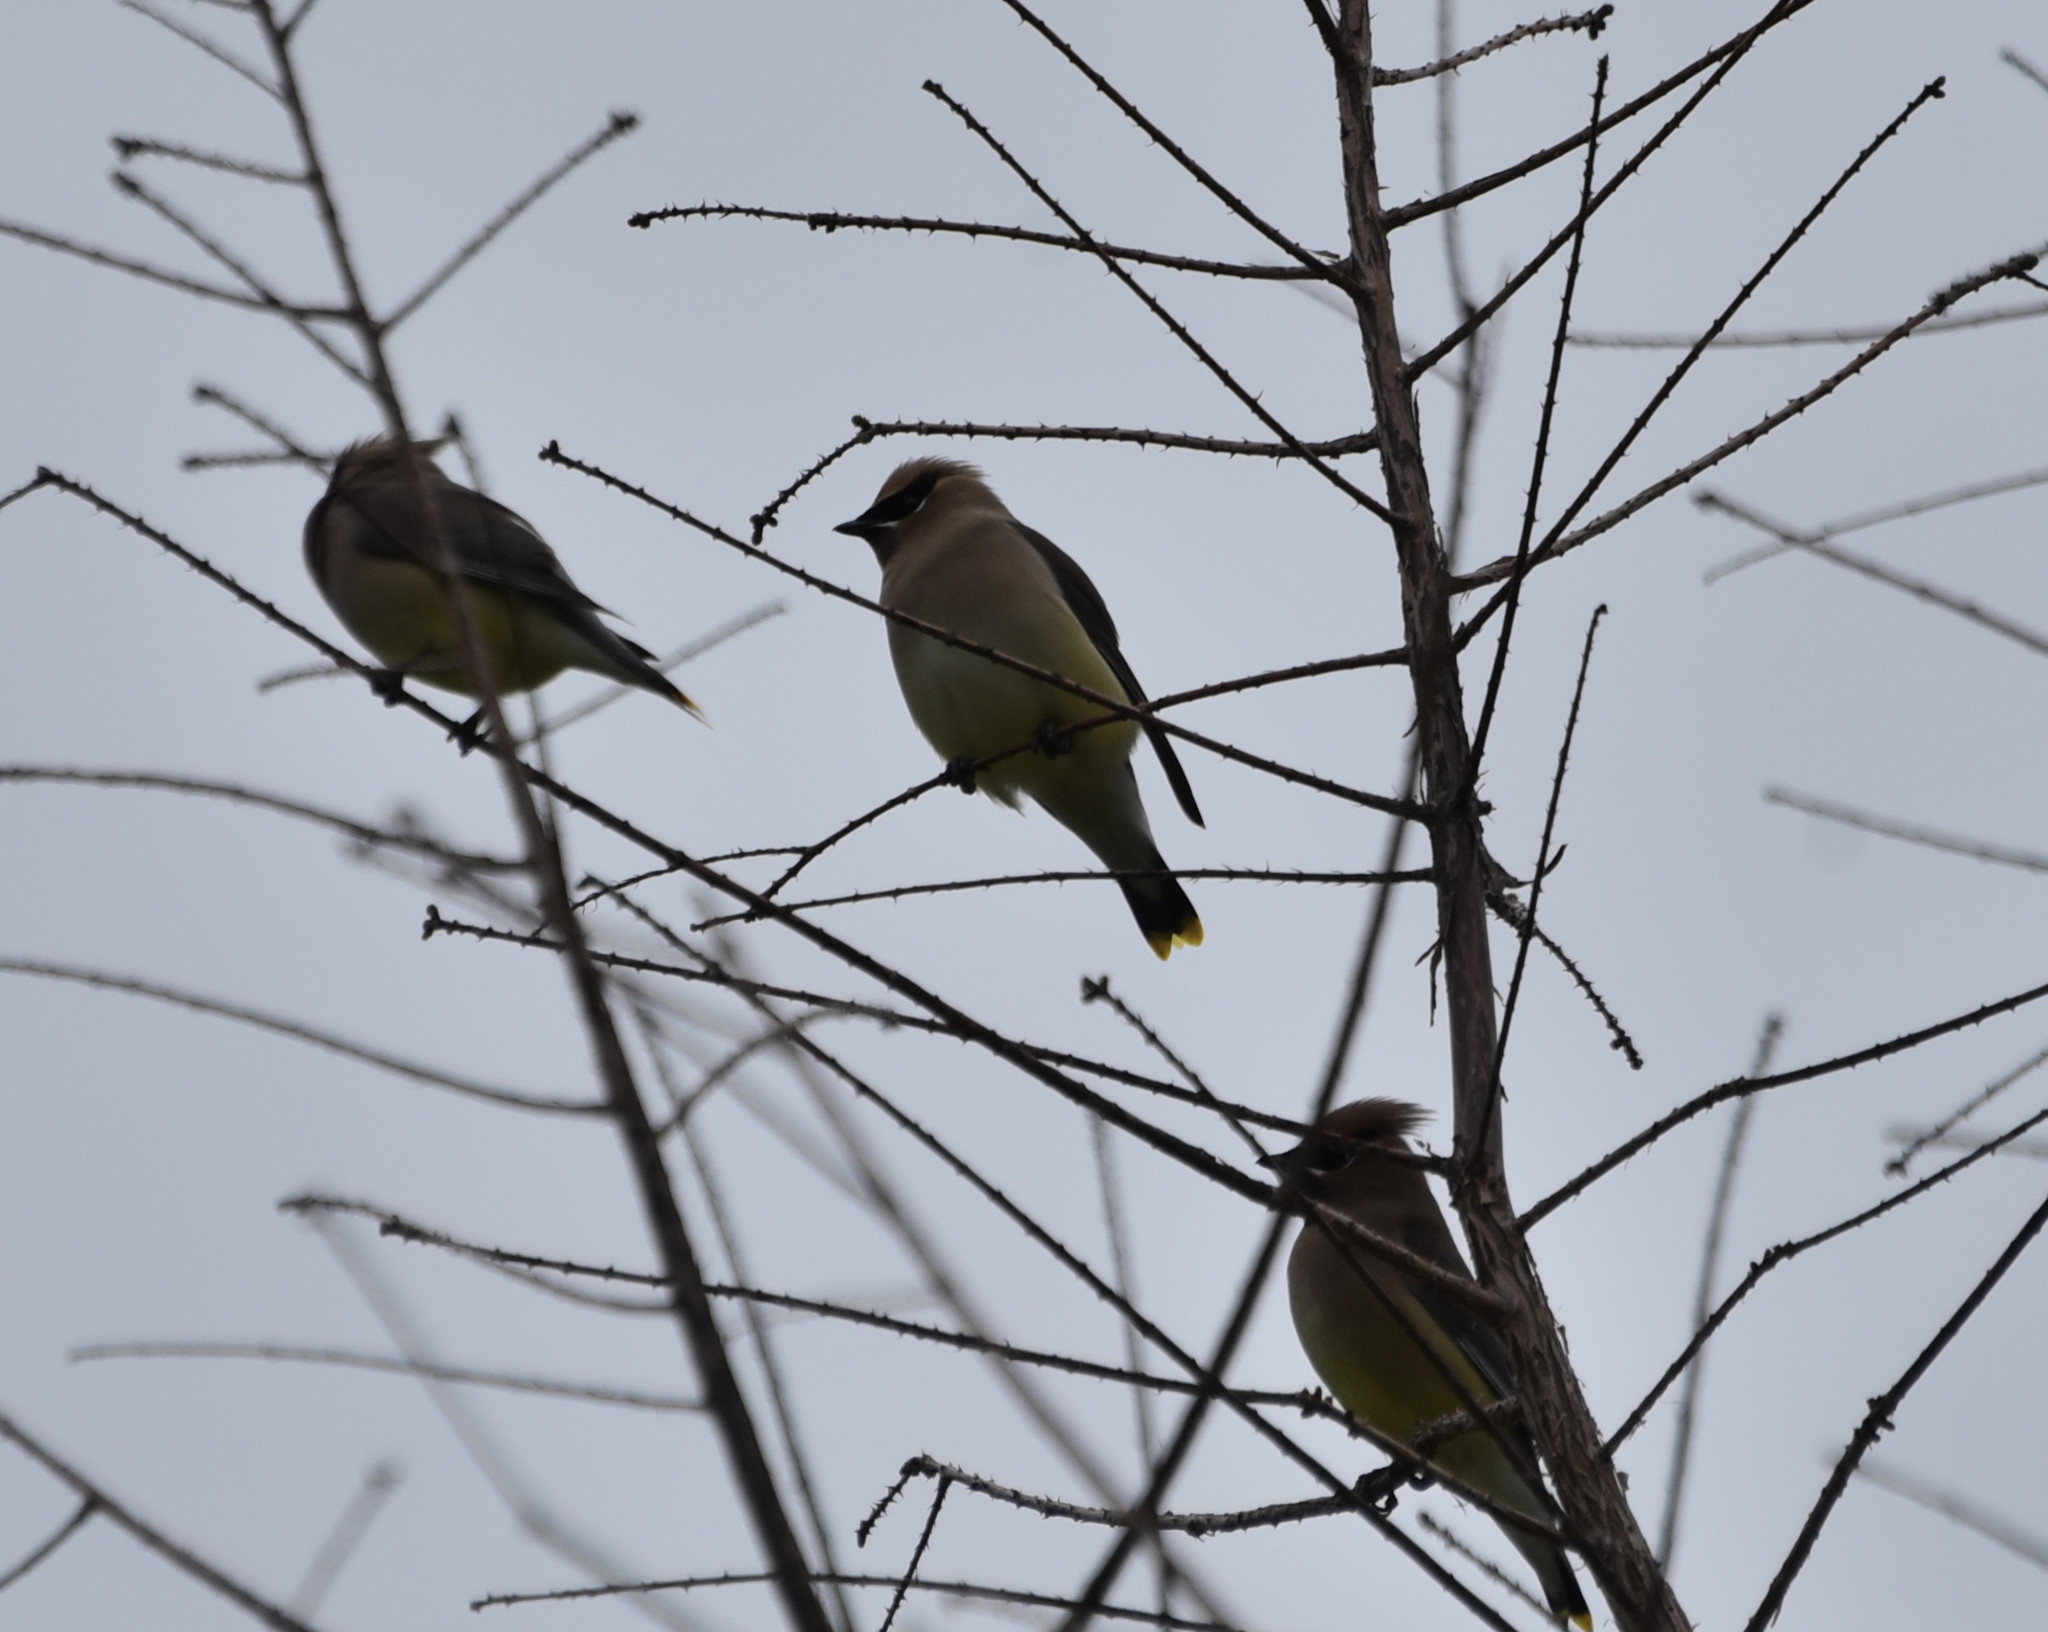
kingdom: Animalia
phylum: Chordata
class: Aves
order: Passeriformes
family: Bombycillidae
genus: Bombycilla
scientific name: Bombycilla cedrorum
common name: Cedar waxwing
